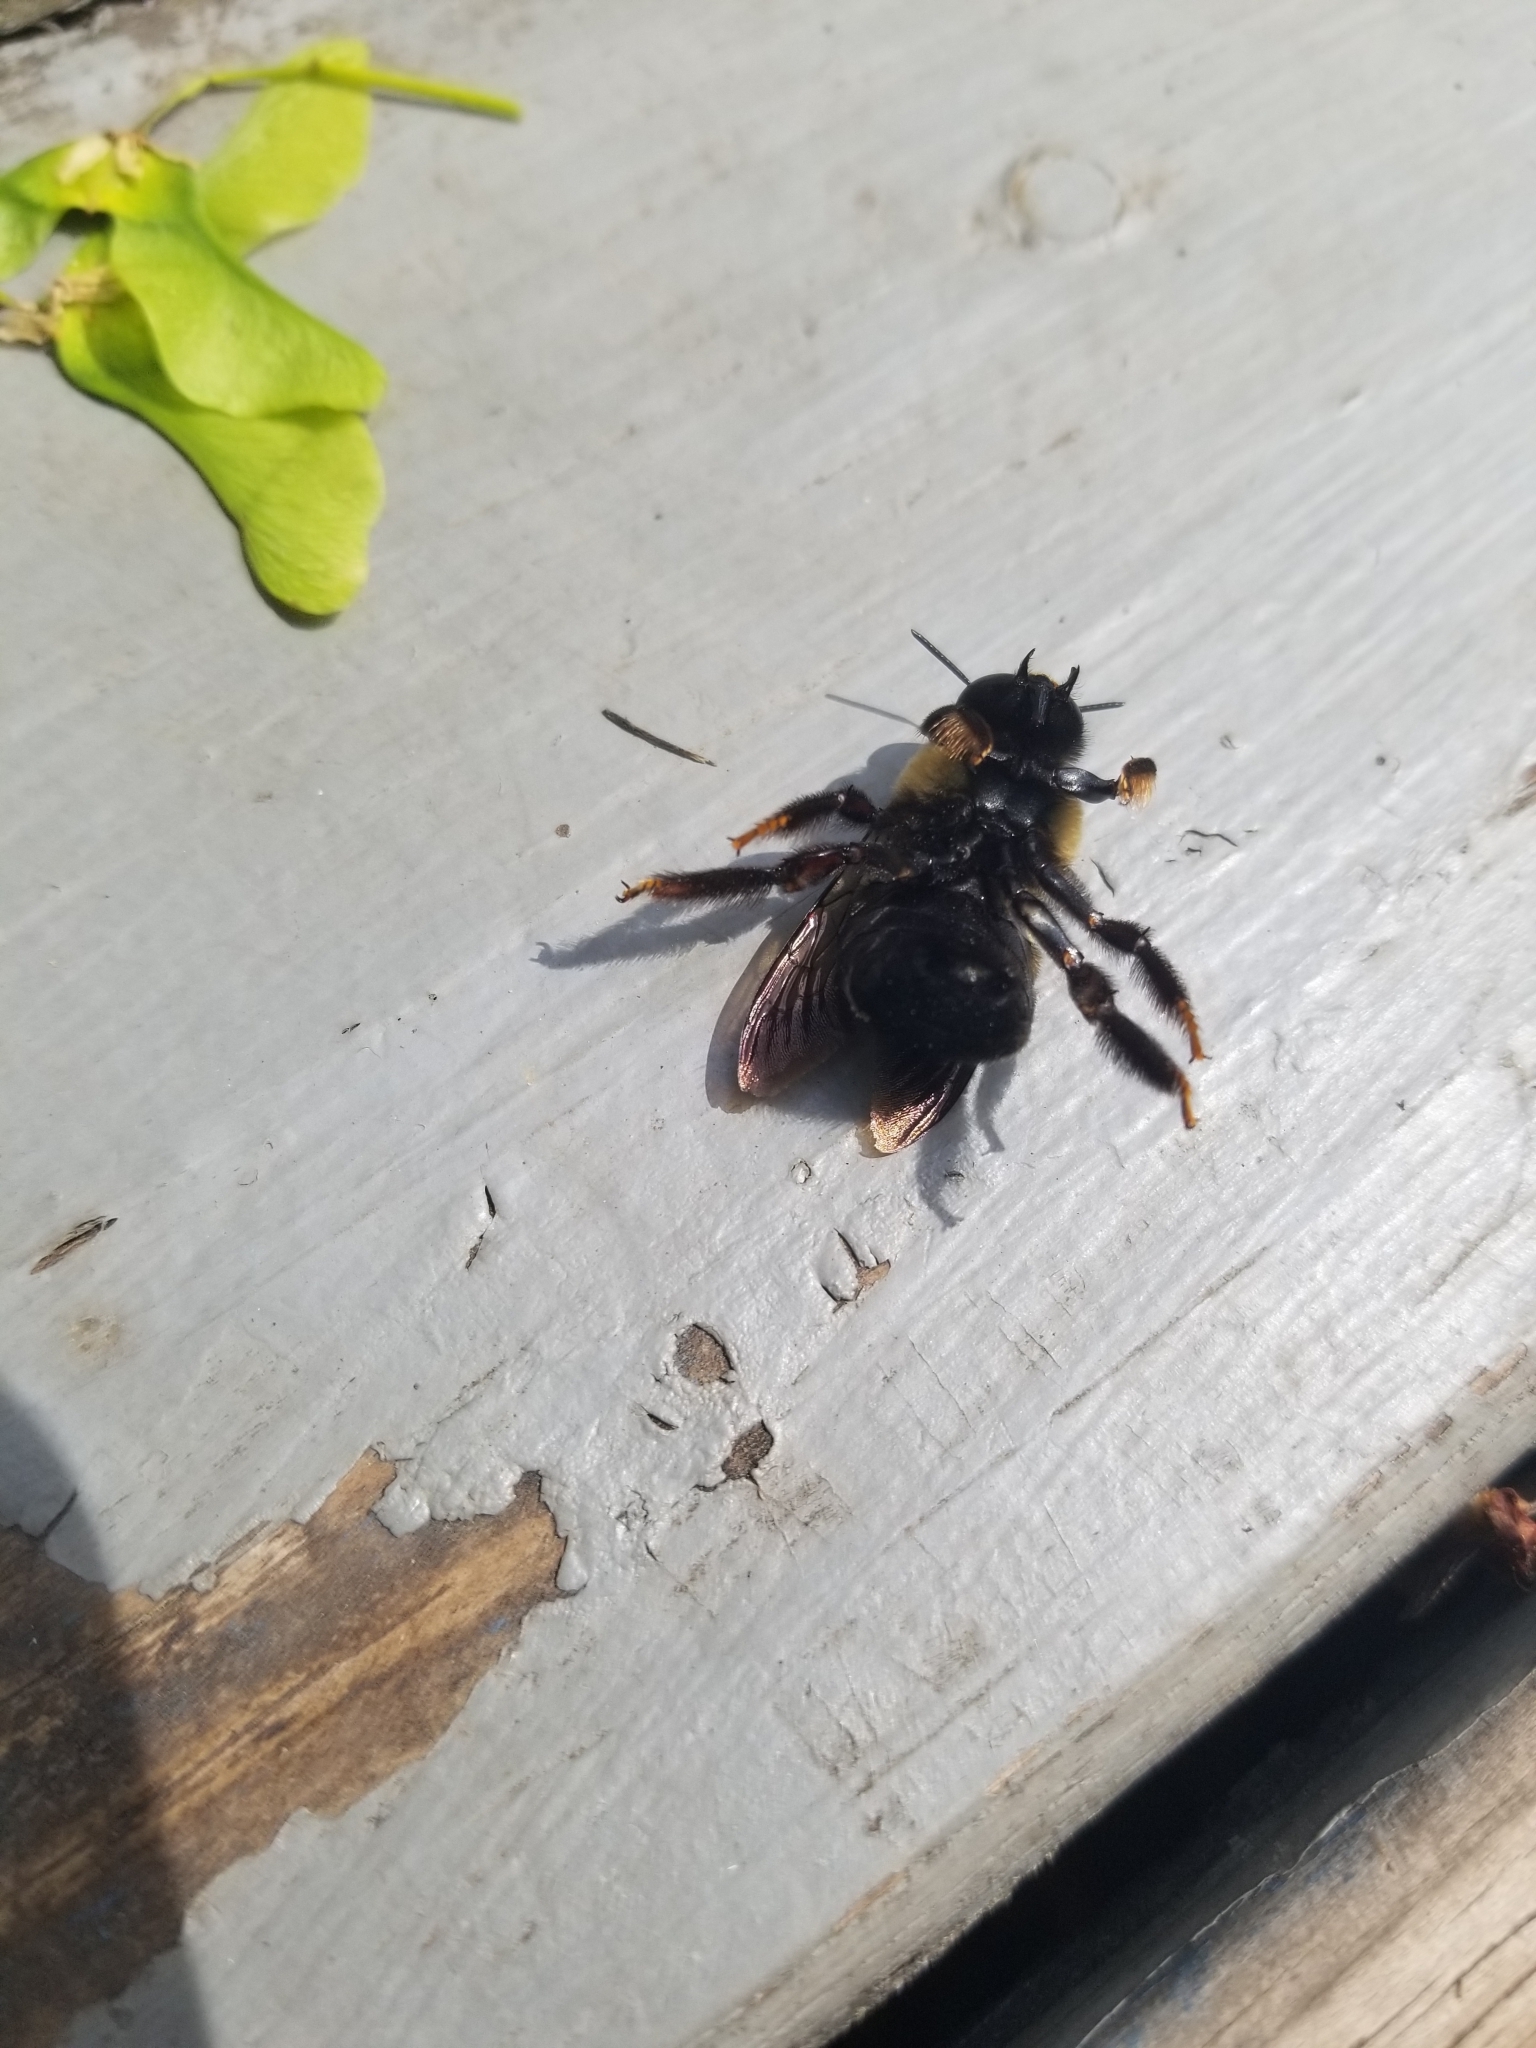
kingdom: Animalia
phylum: Arthropoda
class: Insecta
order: Hymenoptera
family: Apidae
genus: Xylocopa
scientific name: Xylocopa virginica
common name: Carpenter bee
